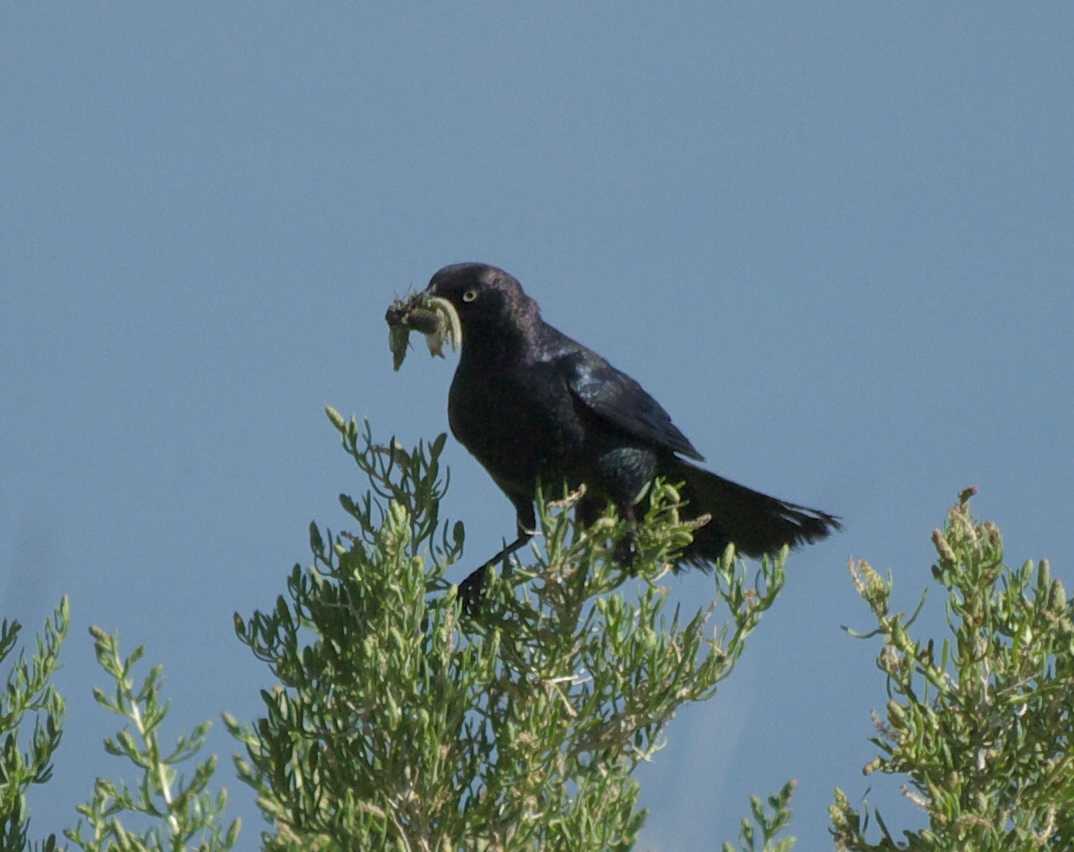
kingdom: Animalia
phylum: Chordata
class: Aves
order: Passeriformes
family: Icteridae
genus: Euphagus
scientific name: Euphagus cyanocephalus
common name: Brewer's blackbird
